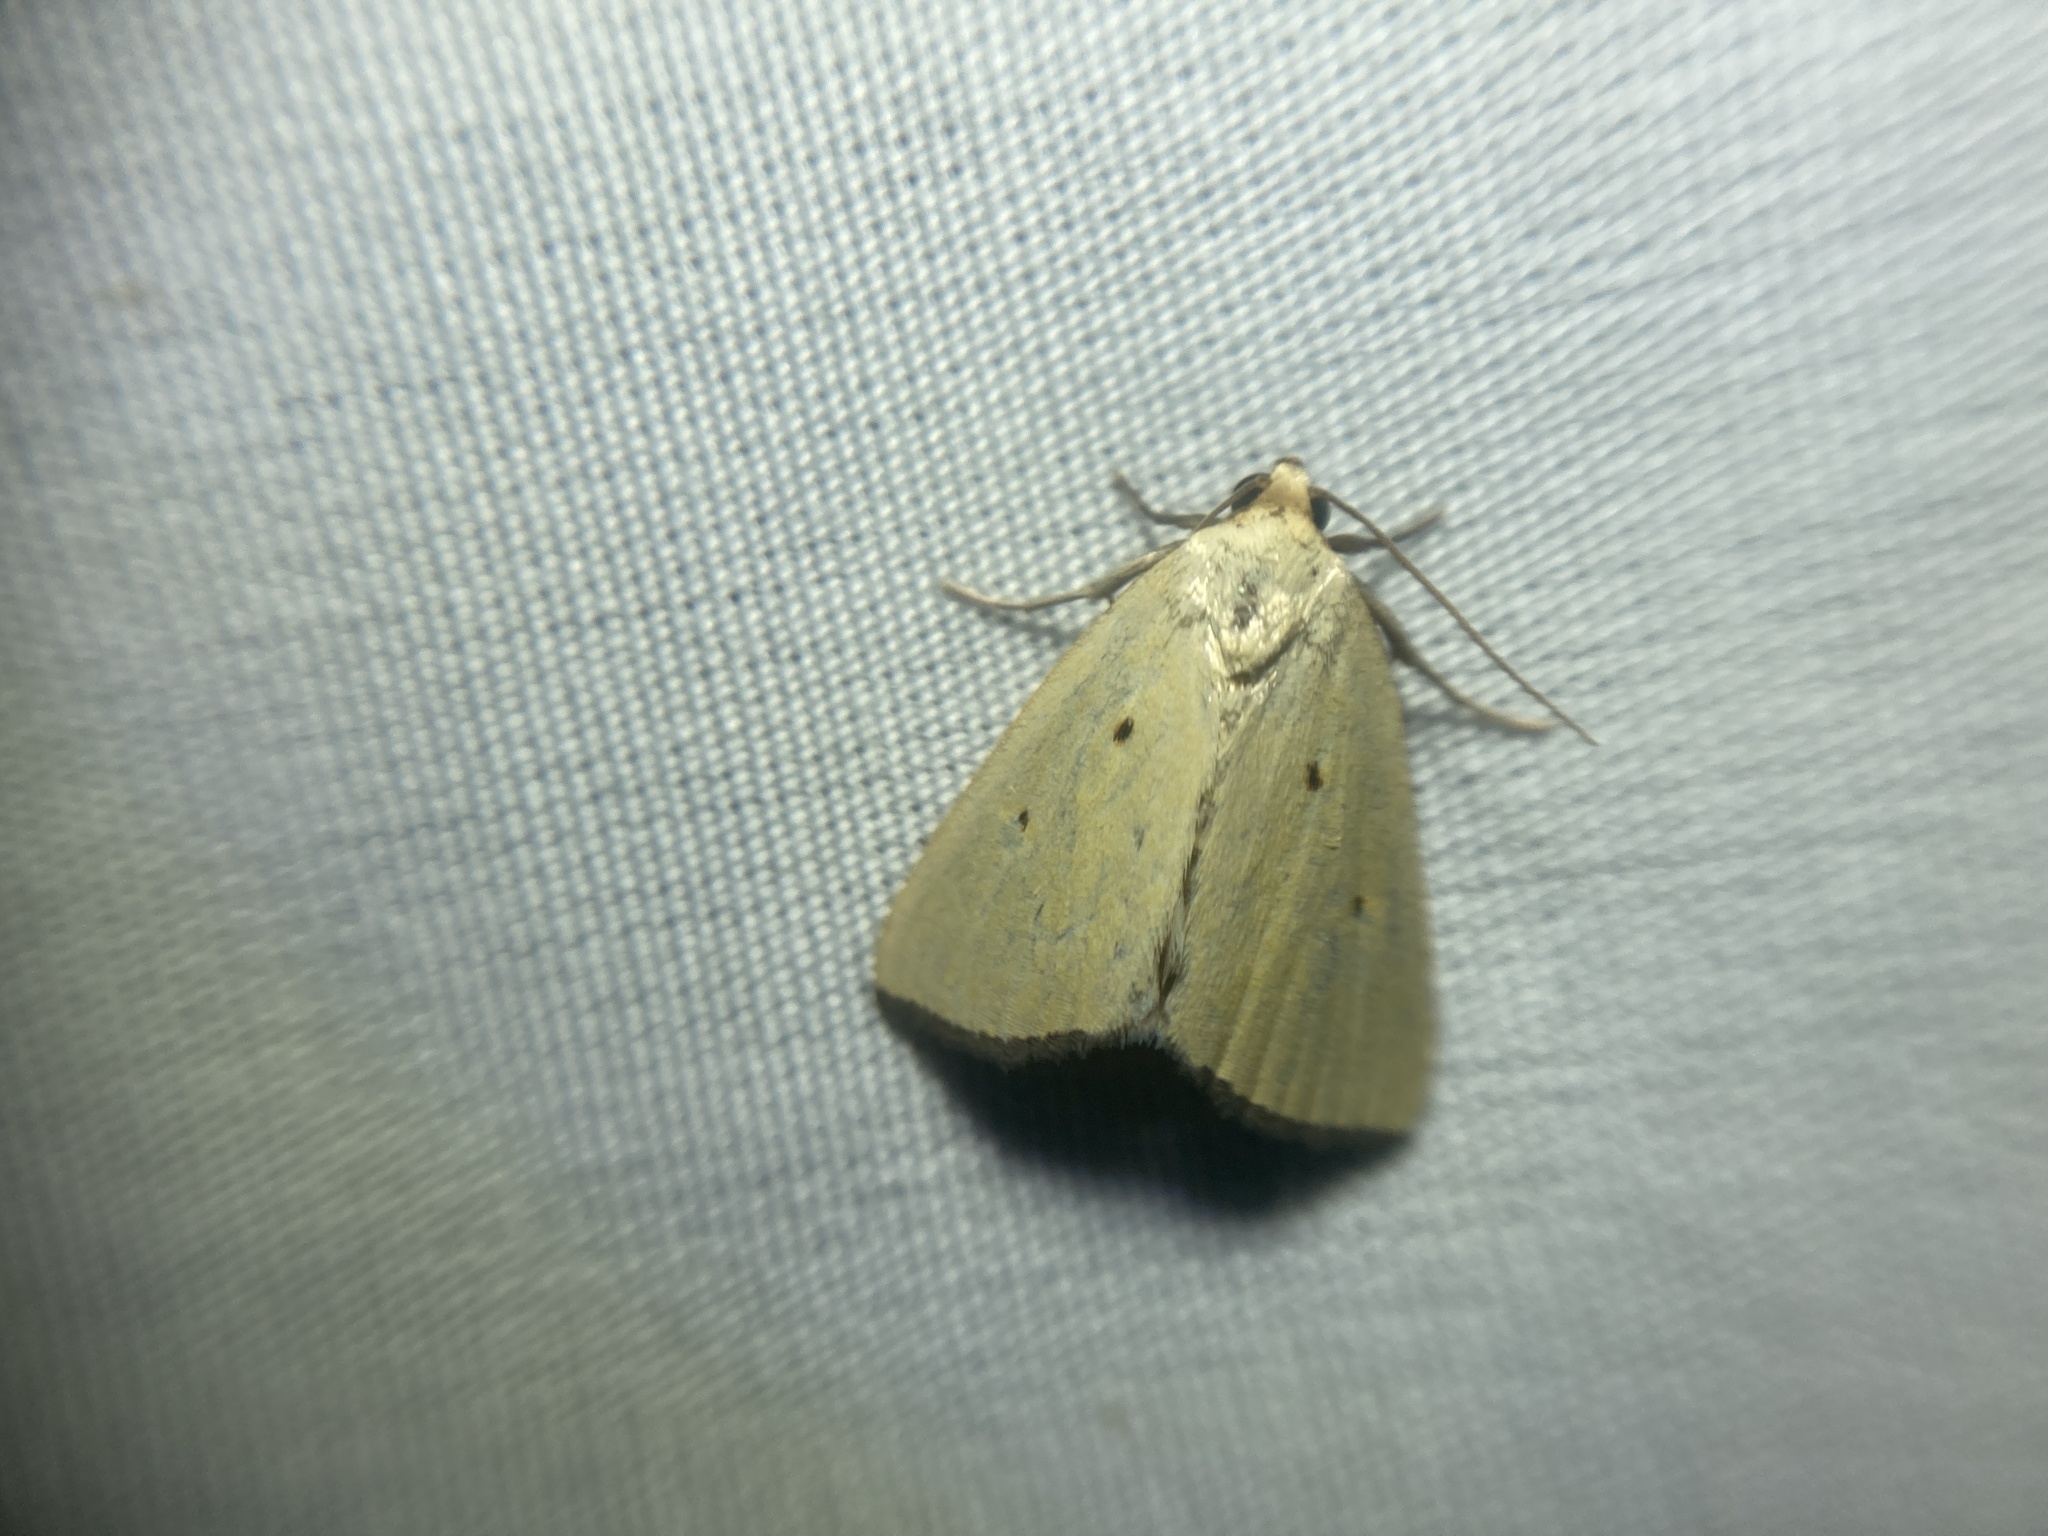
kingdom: Animalia
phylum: Arthropoda
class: Insecta
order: Lepidoptera
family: Noctuidae
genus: Marimatha
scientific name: Marimatha nigrofimbria
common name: Black-bordered lemon moth
